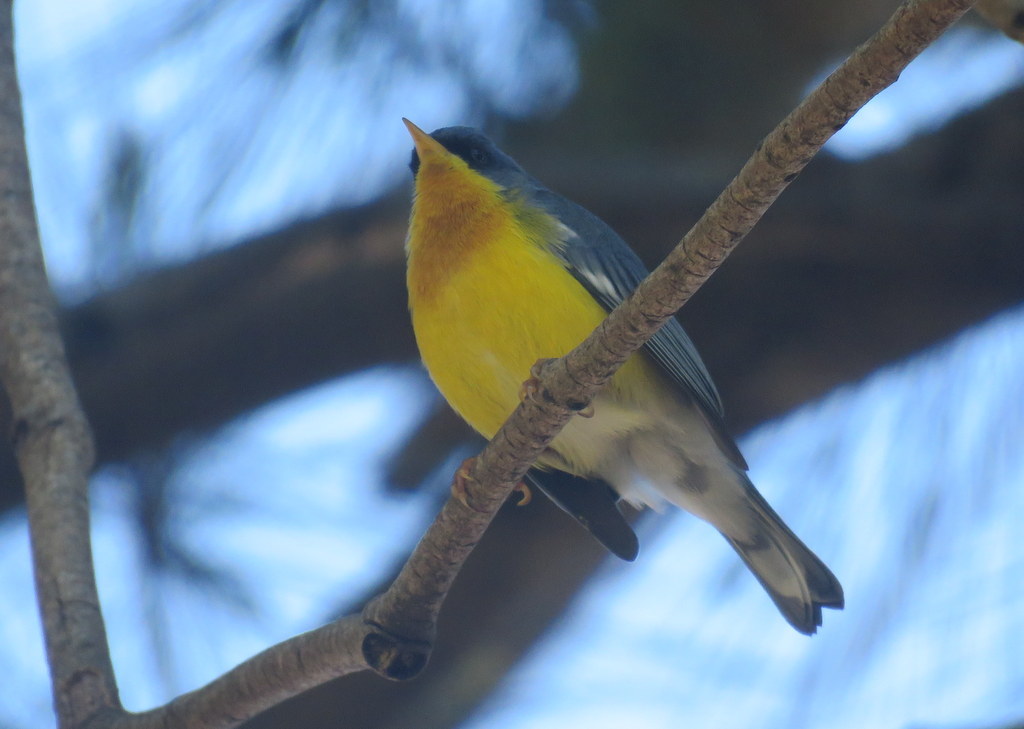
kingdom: Animalia
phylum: Chordata
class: Aves
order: Passeriformes
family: Parulidae
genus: Setophaga
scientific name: Setophaga pitiayumi
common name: Tropical parula
